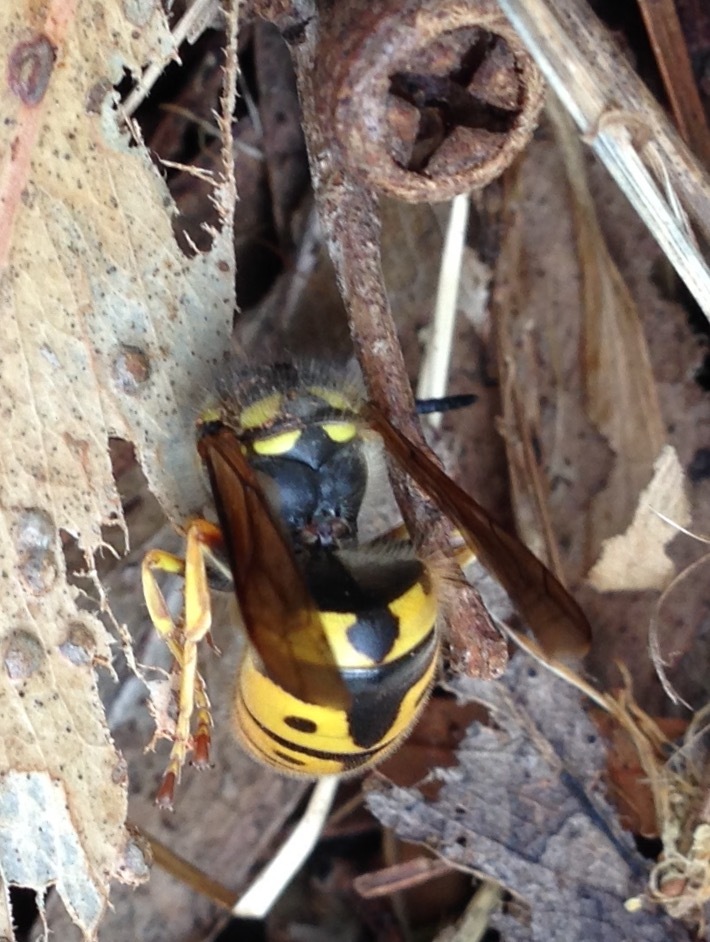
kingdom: Animalia
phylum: Arthropoda
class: Insecta
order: Hymenoptera
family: Vespidae
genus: Vespula
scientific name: Vespula germanica
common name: German wasp
